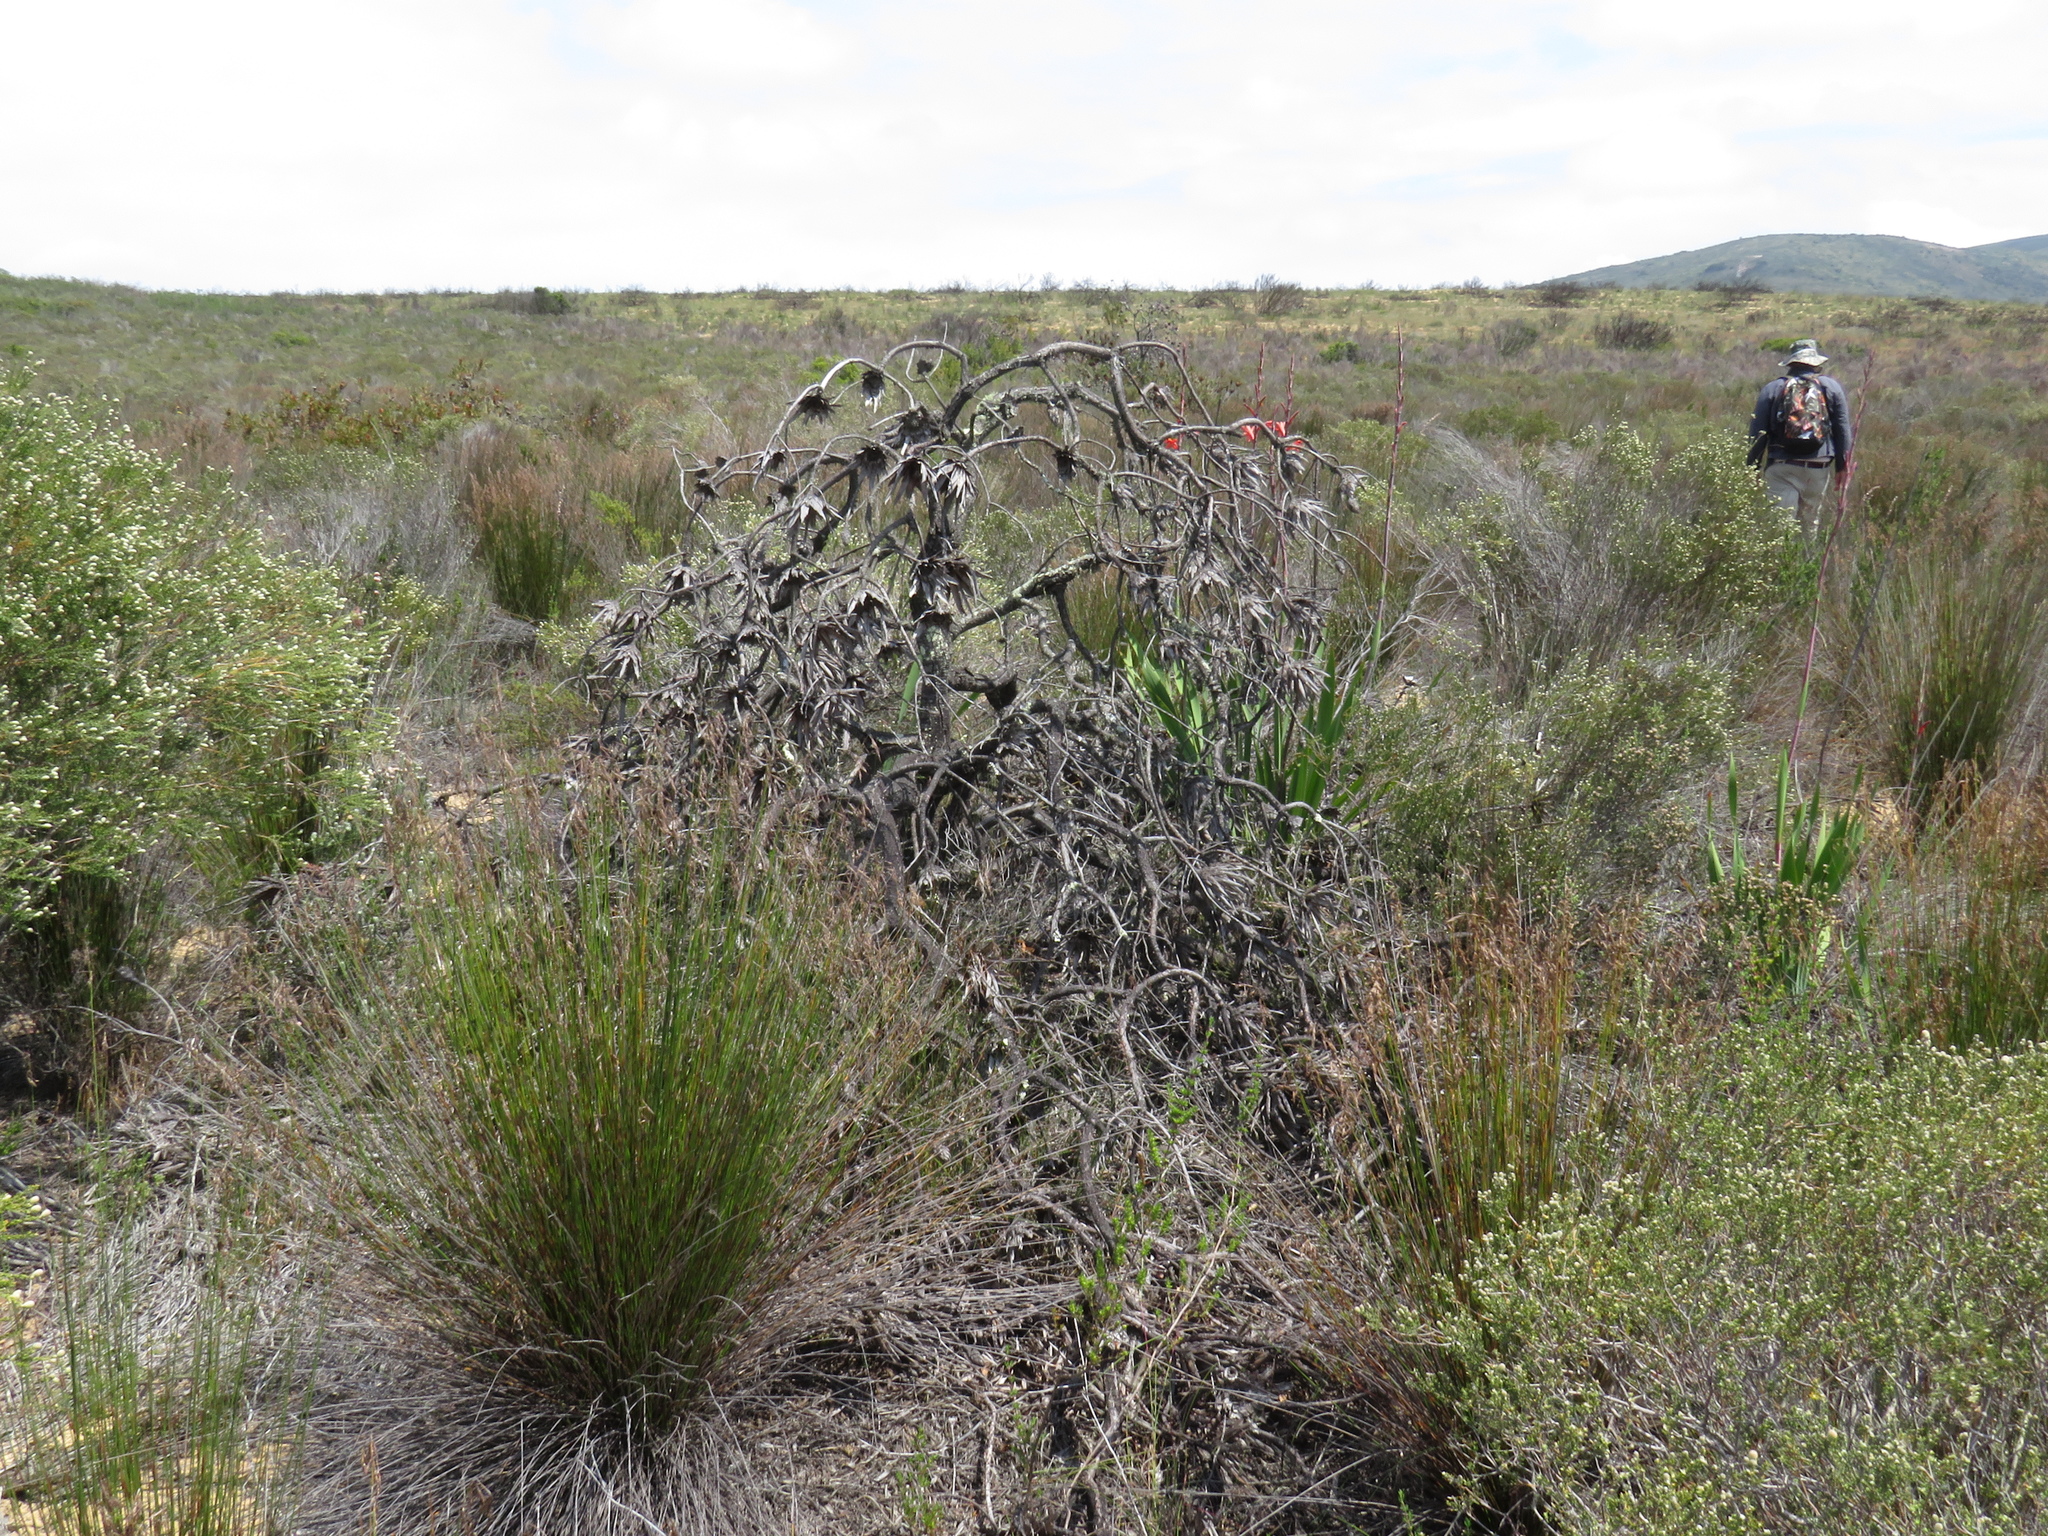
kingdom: Plantae
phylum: Tracheophyta
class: Magnoliopsida
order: Proteales
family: Proteaceae
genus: Protea
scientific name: Protea repens
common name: Sugarbush
